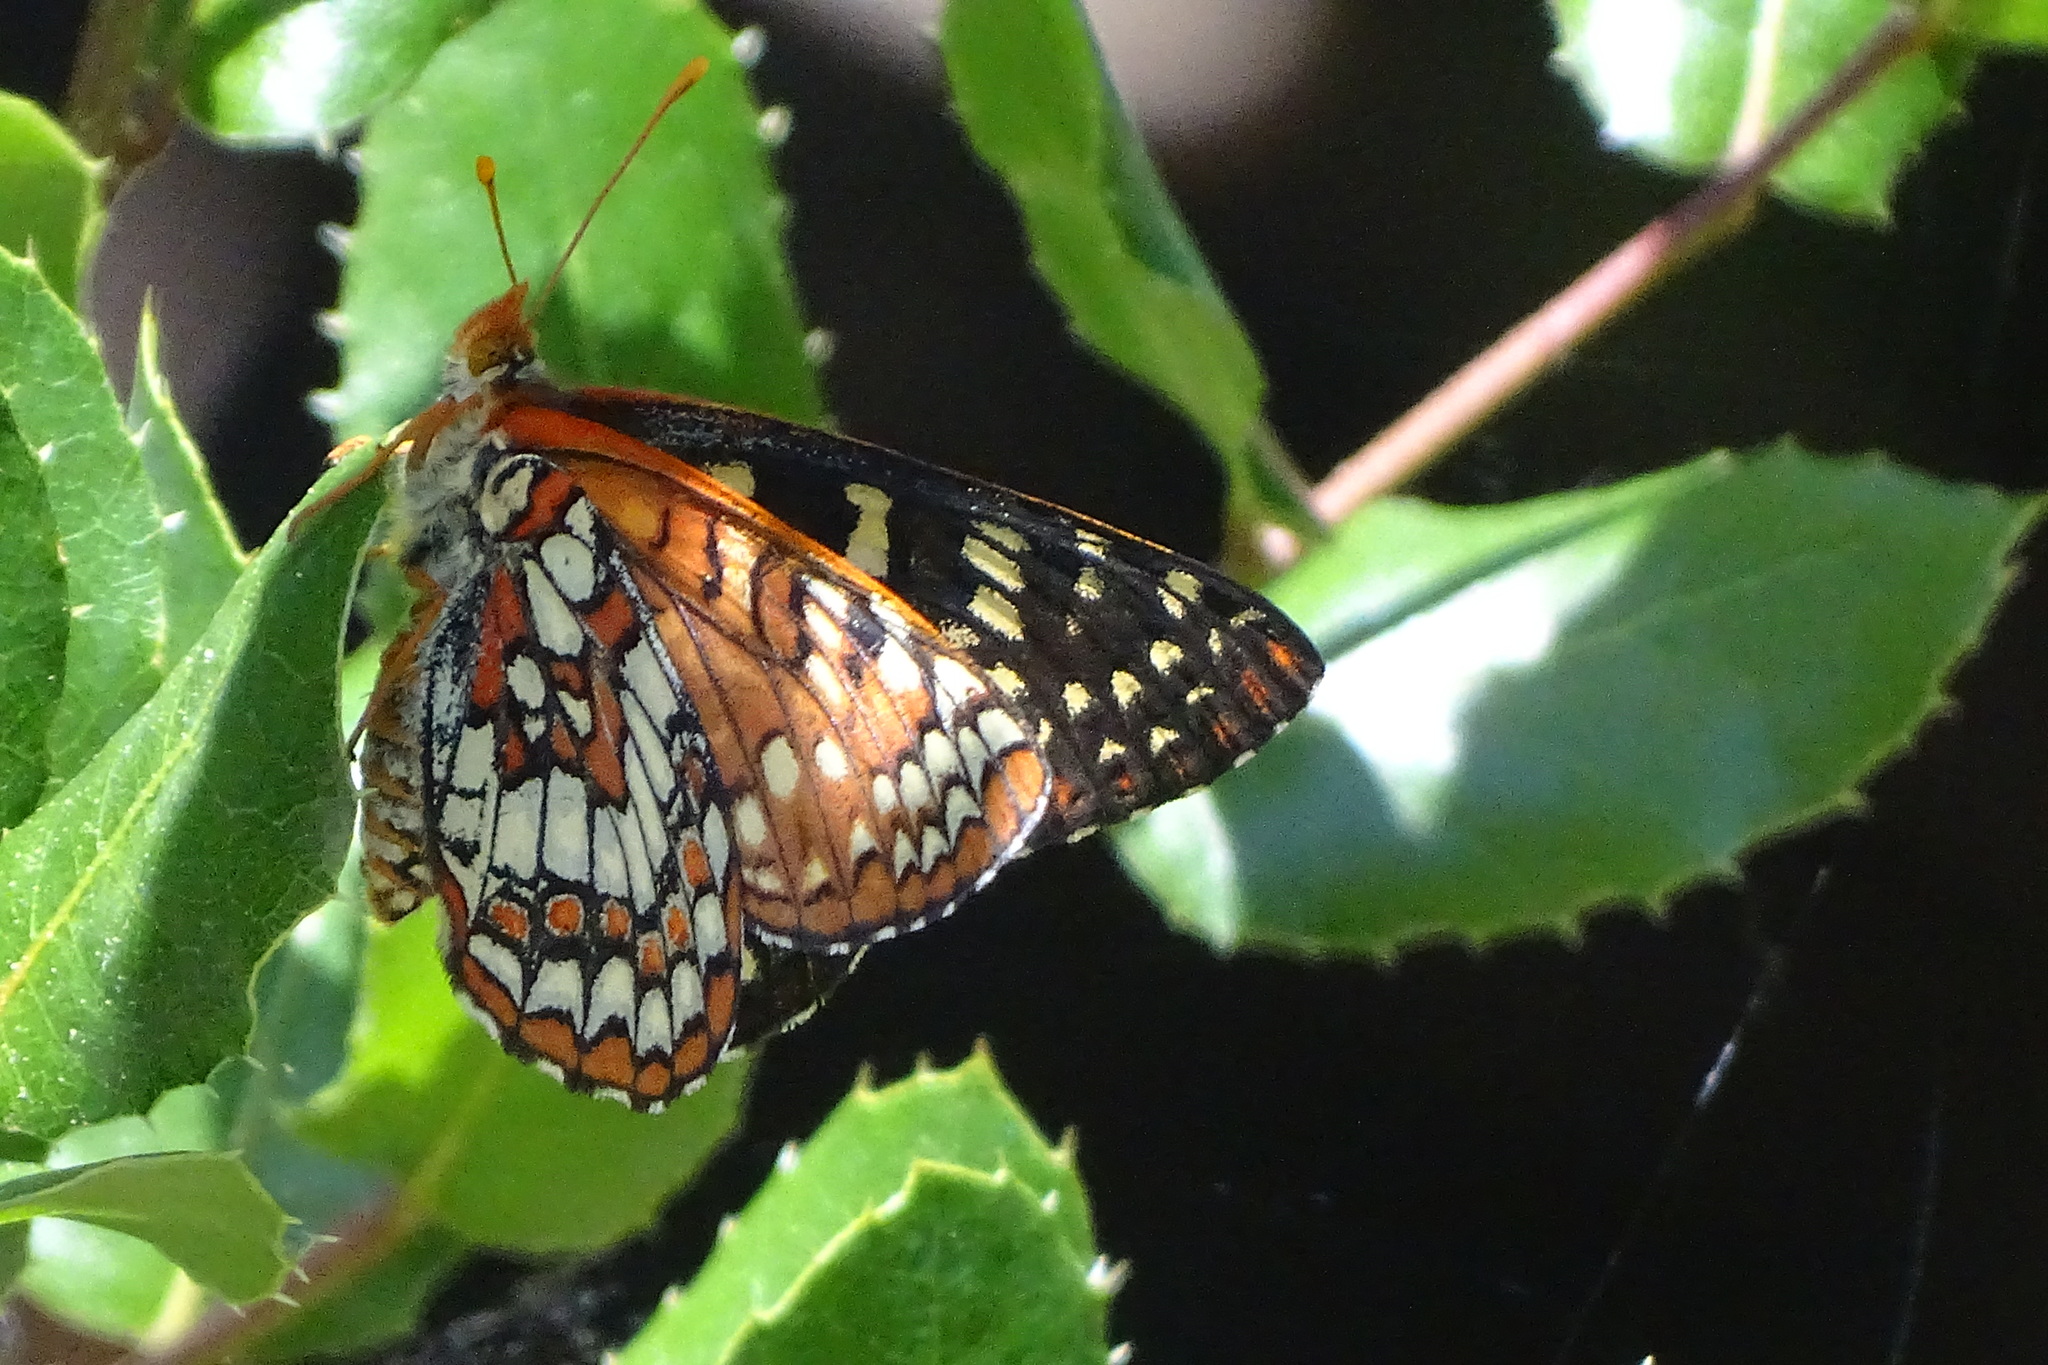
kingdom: Animalia
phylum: Arthropoda
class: Insecta
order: Lepidoptera
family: Nymphalidae
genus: Occidryas
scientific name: Occidryas chalcedona
